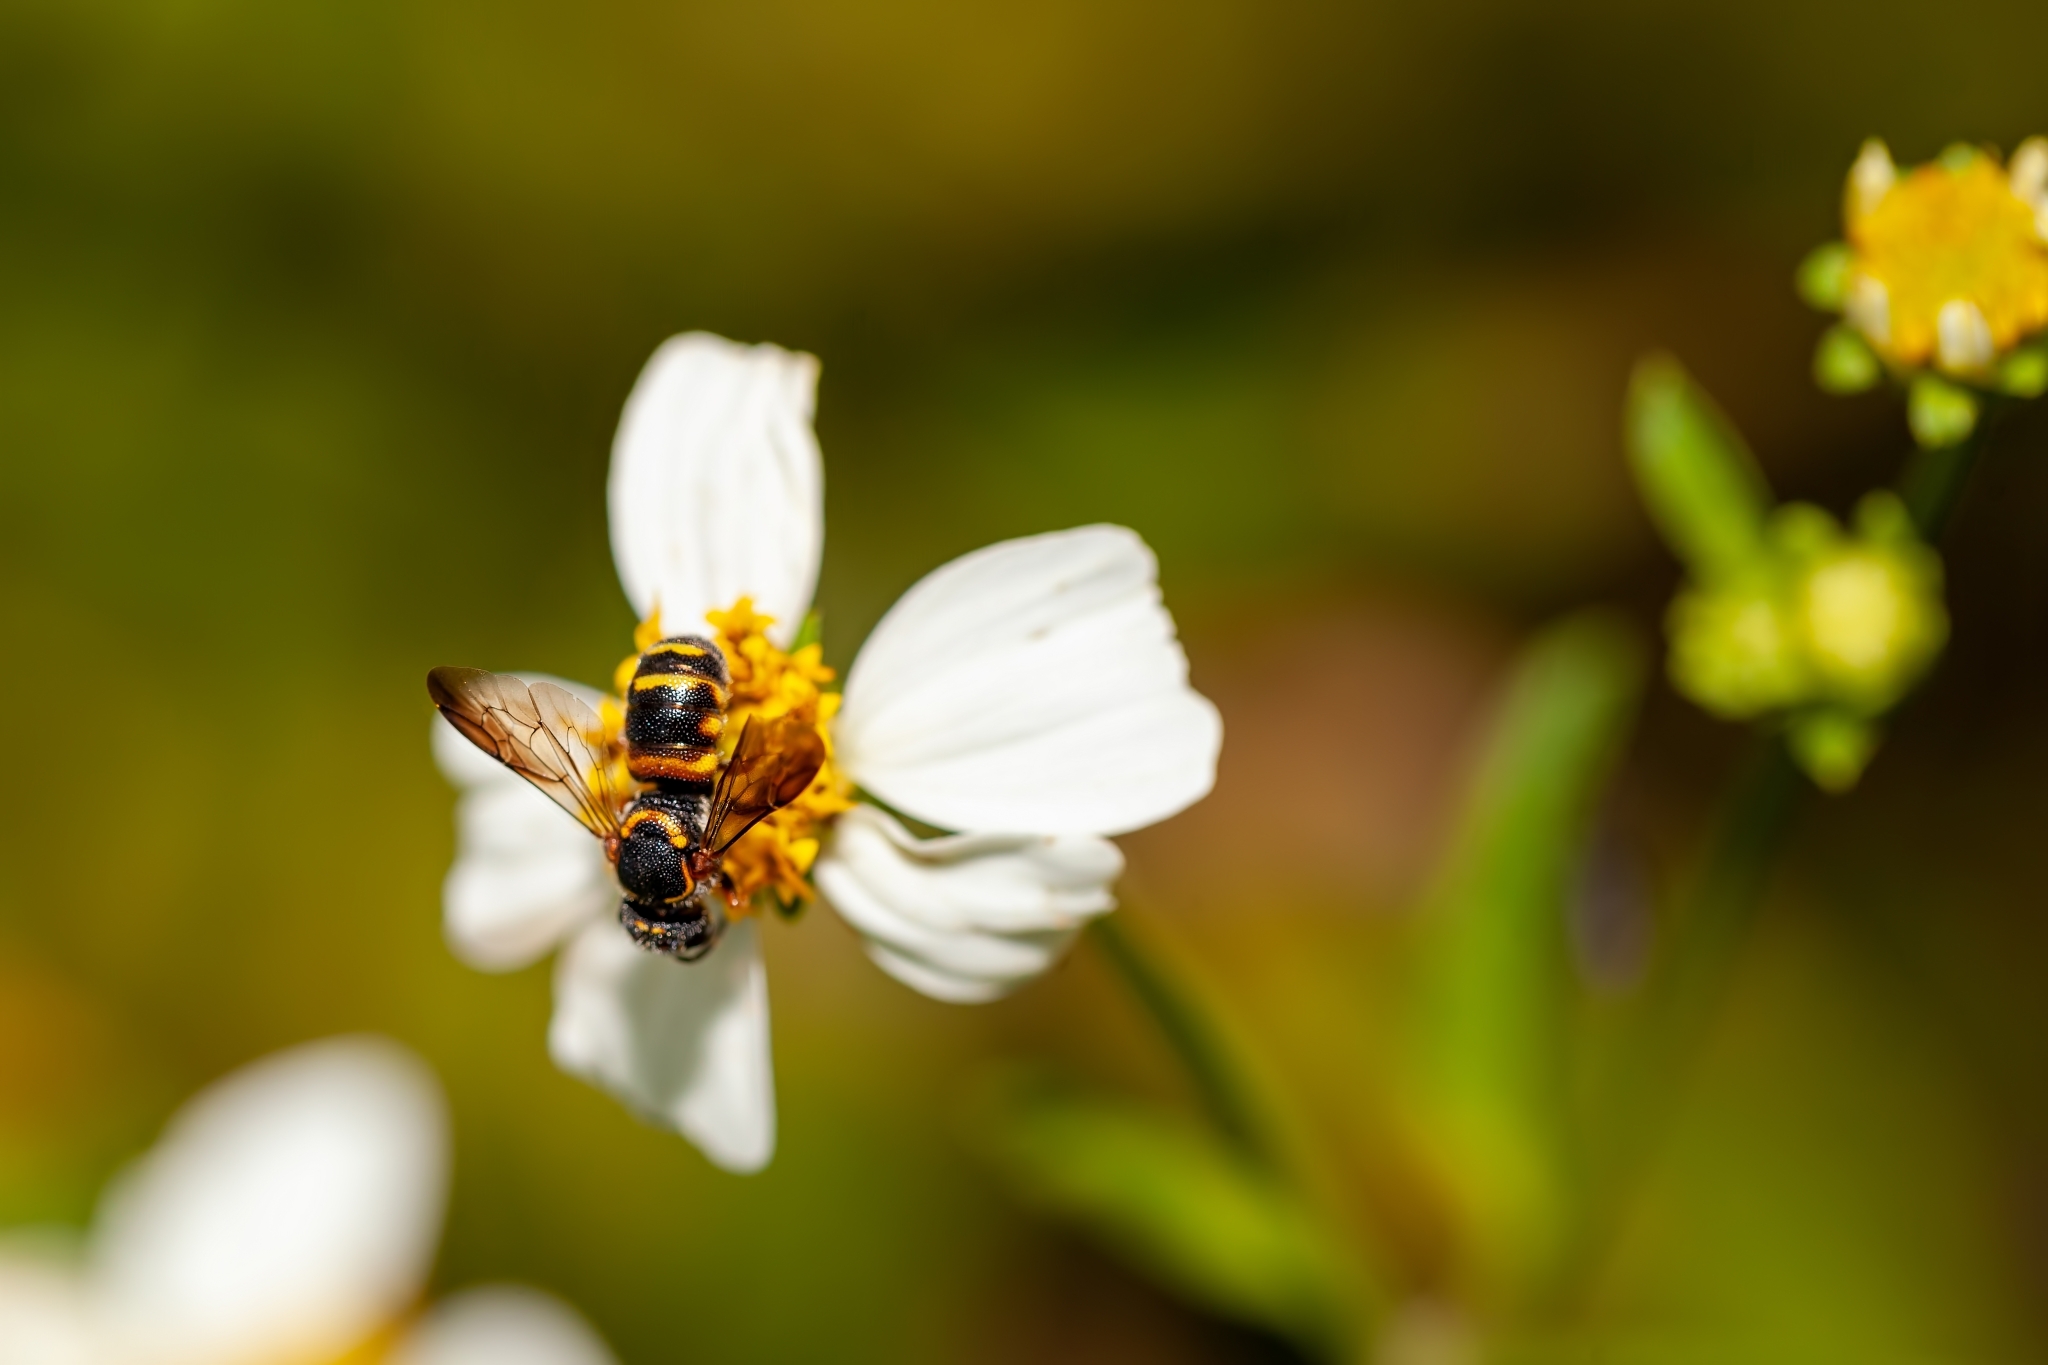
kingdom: Animalia
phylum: Arthropoda
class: Insecta
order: Hymenoptera
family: Megachilidae
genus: Stelis
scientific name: Stelis louisae
